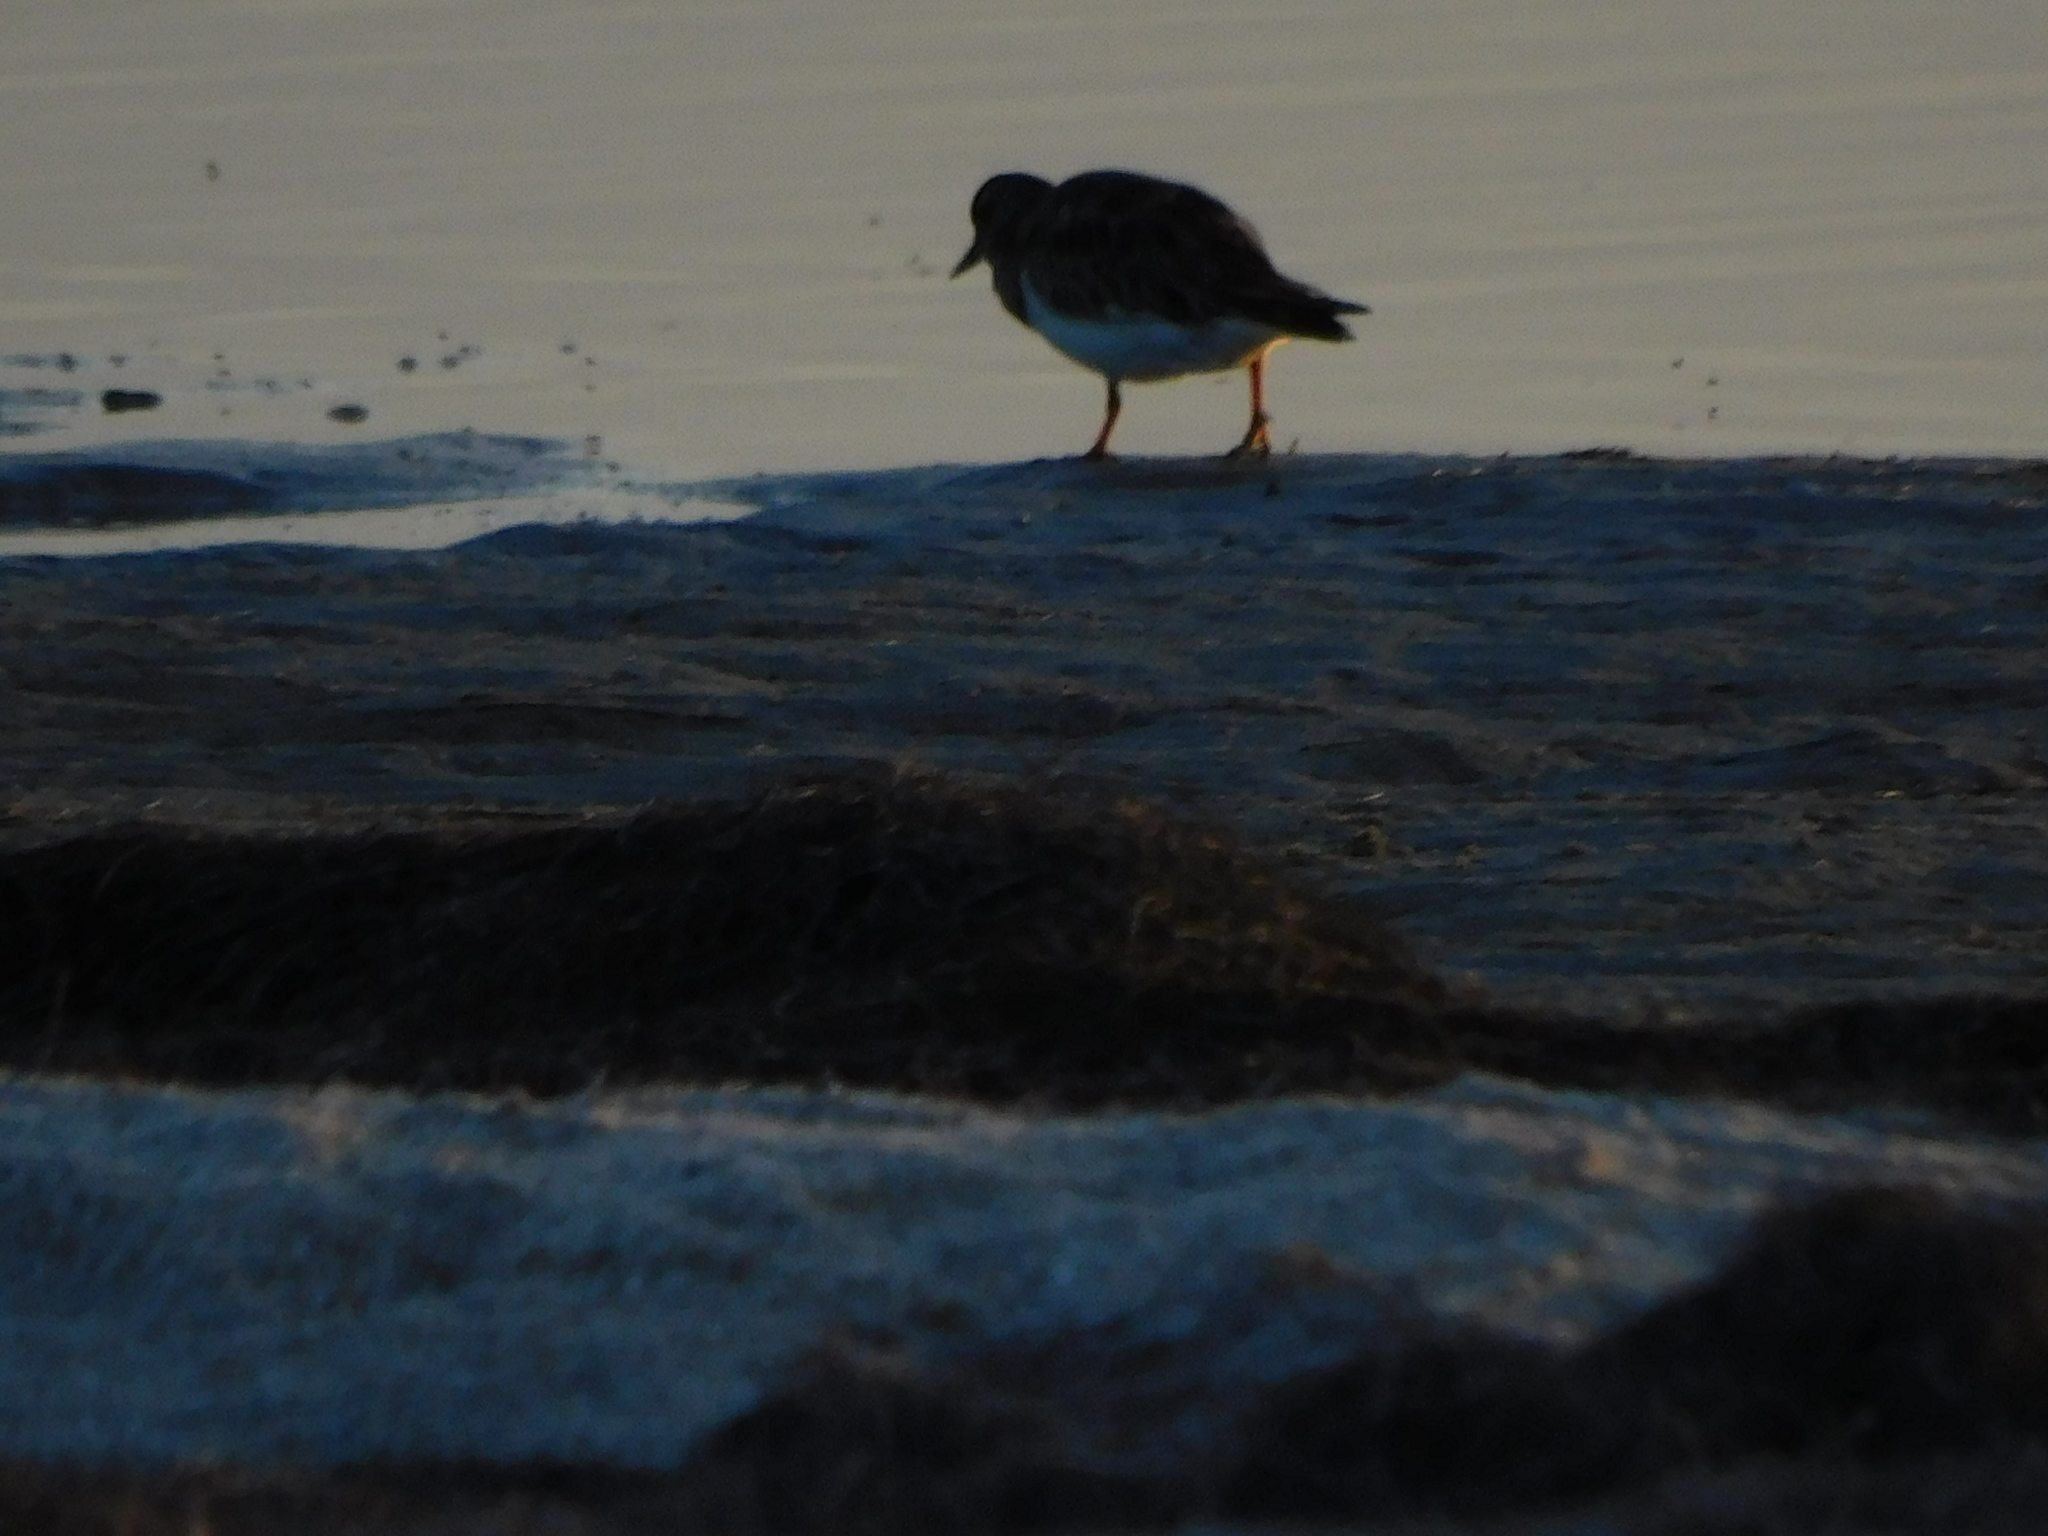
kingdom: Animalia
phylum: Chordata
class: Aves
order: Charadriiformes
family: Scolopacidae
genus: Arenaria
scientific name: Arenaria interpres
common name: Ruddy turnstone
